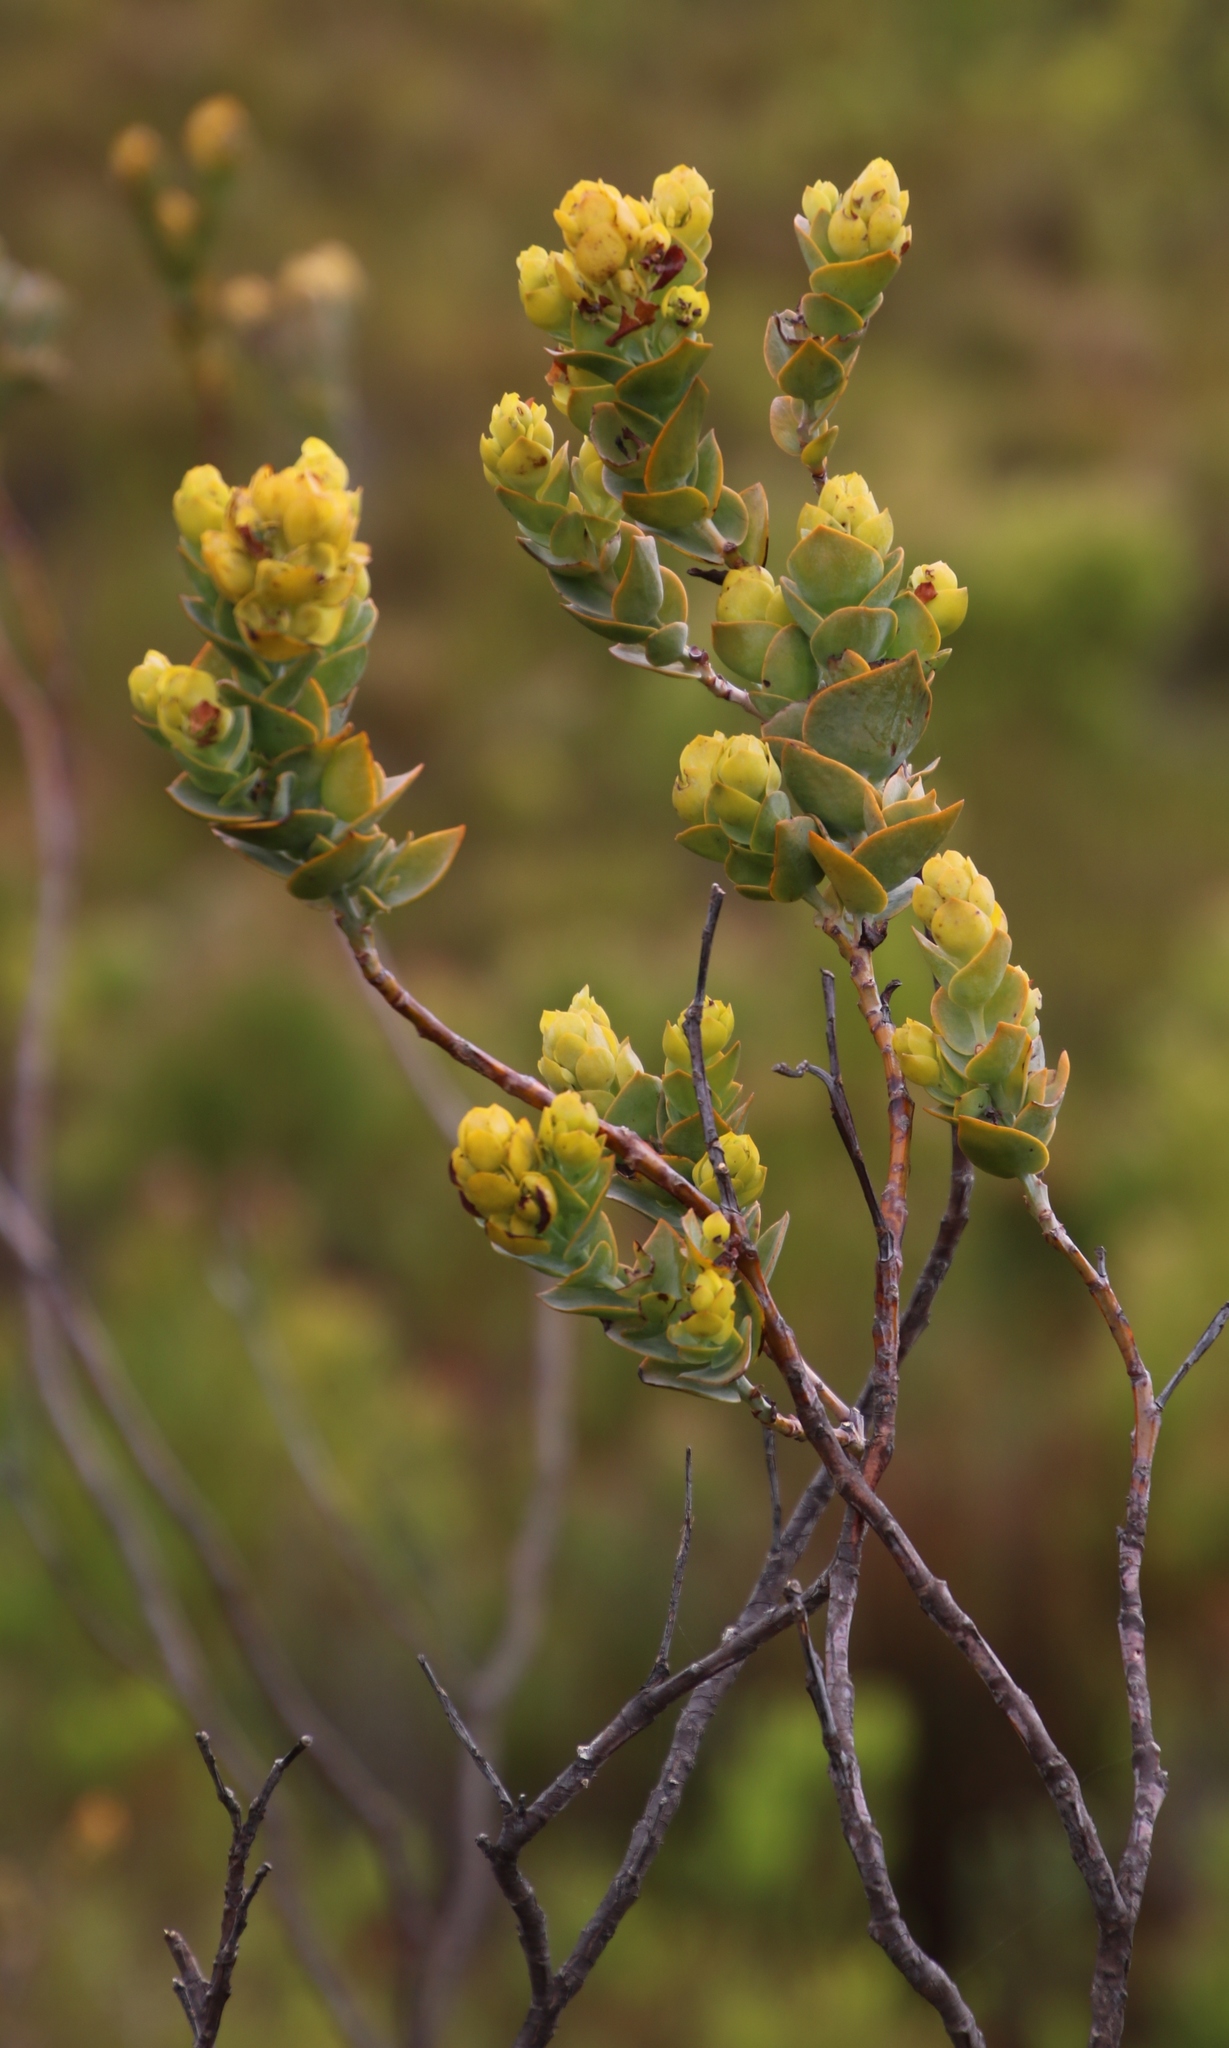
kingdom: Plantae
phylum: Tracheophyta
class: Magnoliopsida
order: Santalales
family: Thesiaceae
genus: Thesium
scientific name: Thesium euphorbioides
